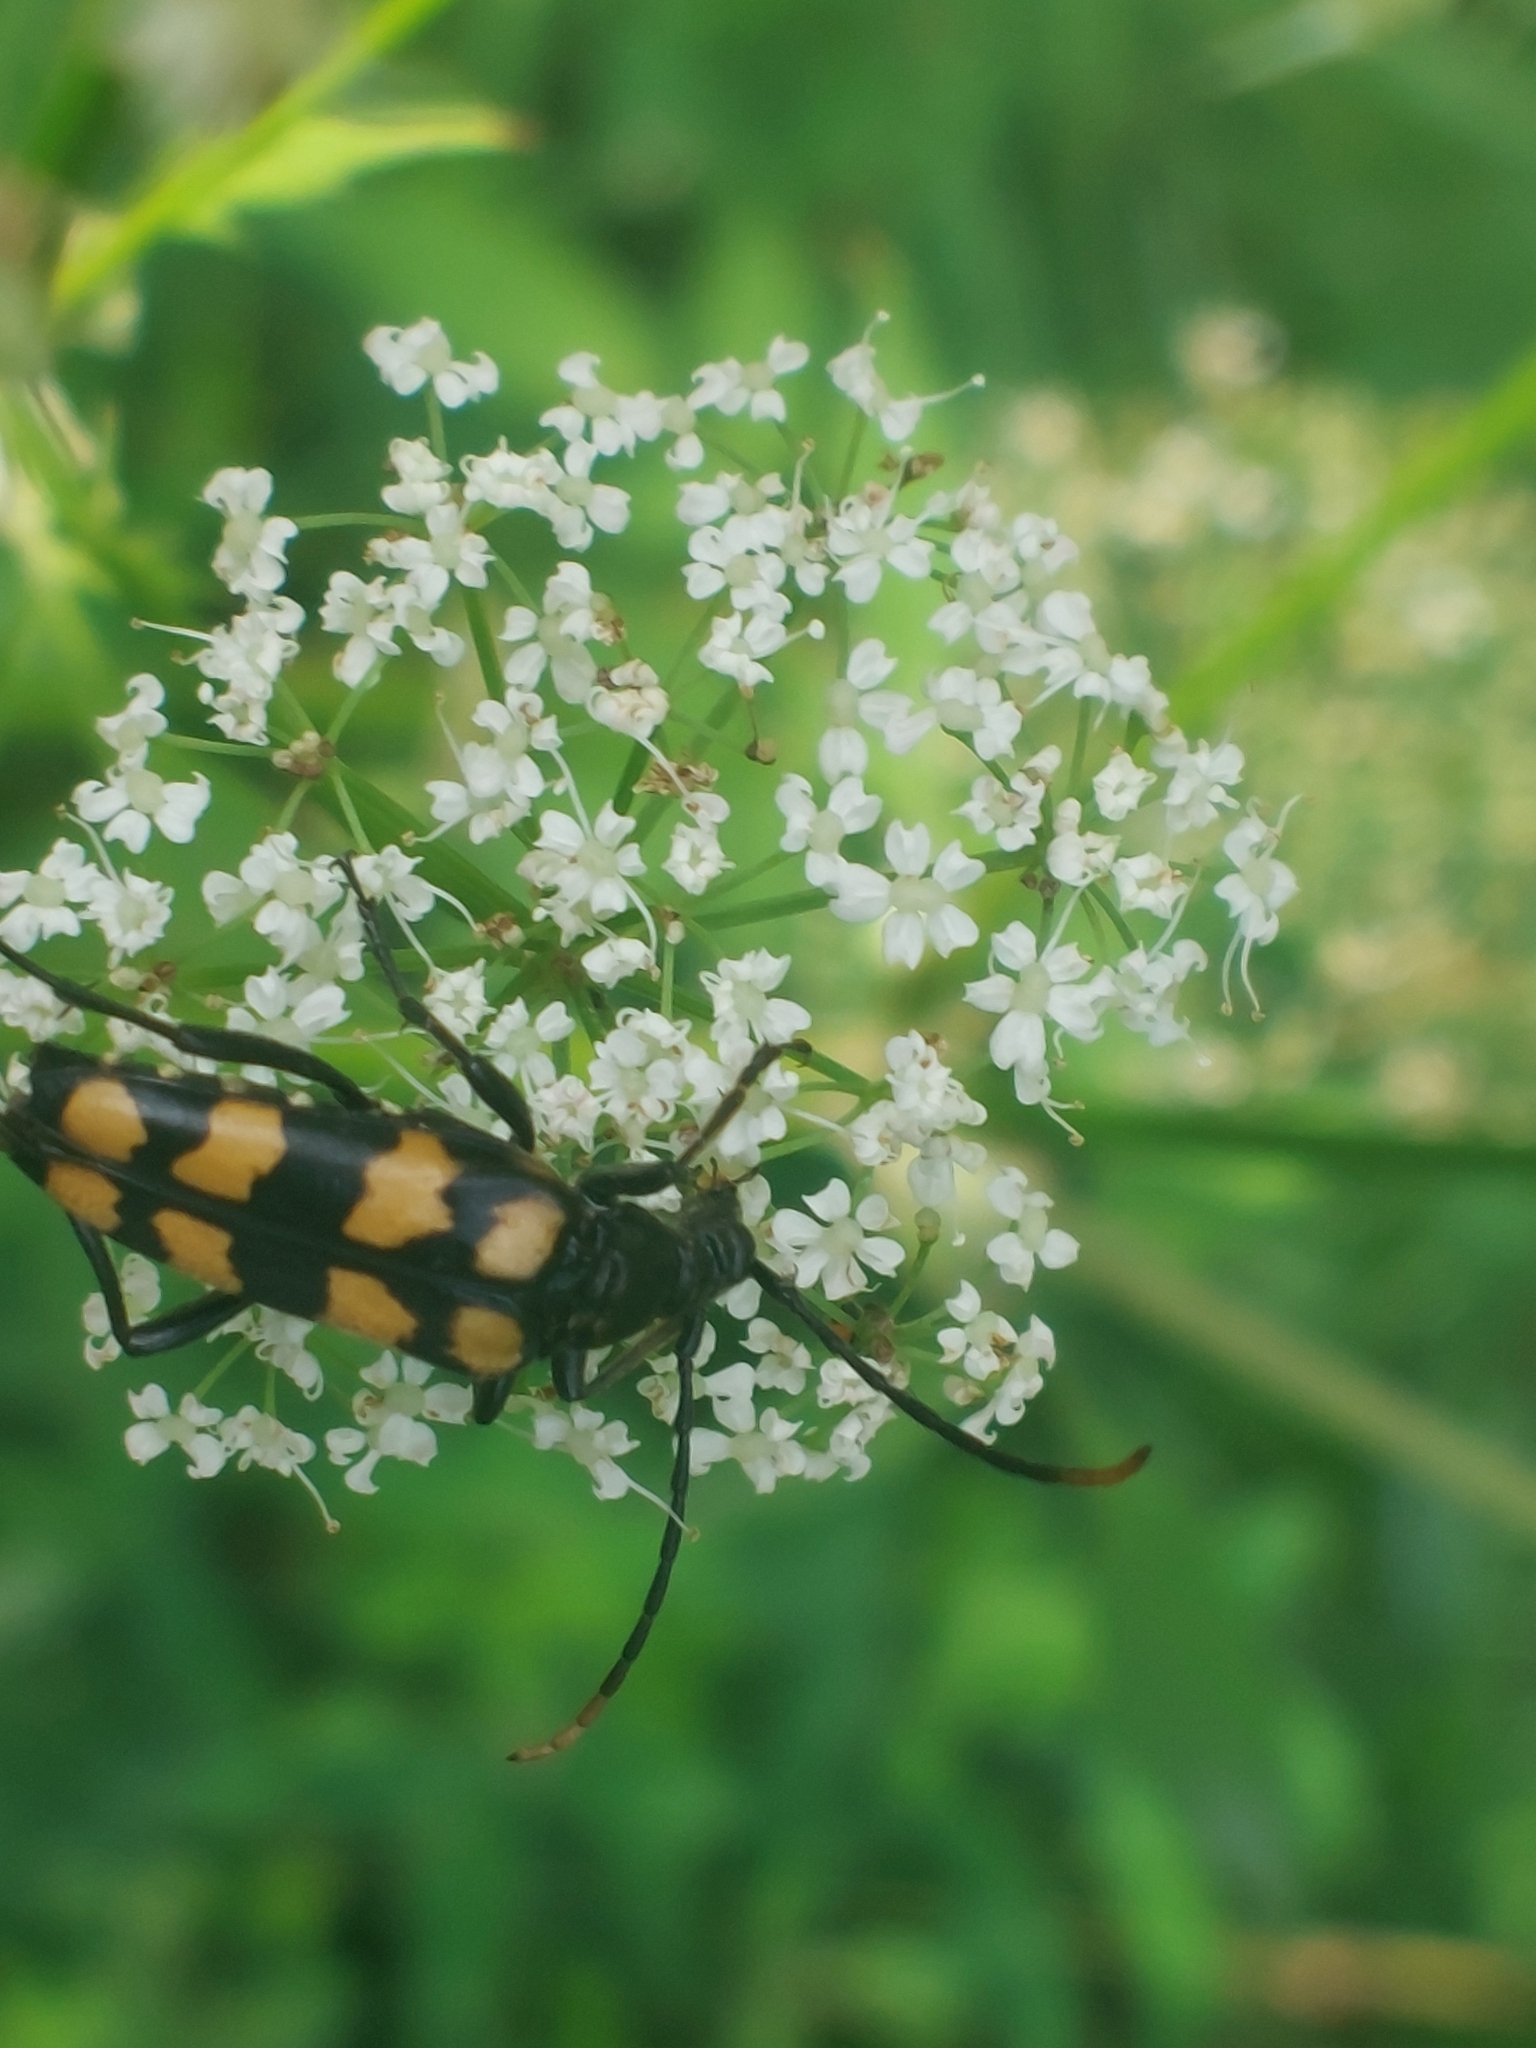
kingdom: Animalia
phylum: Arthropoda
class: Insecta
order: Coleoptera
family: Cerambycidae
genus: Leptura
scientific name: Leptura quadrifasciata
